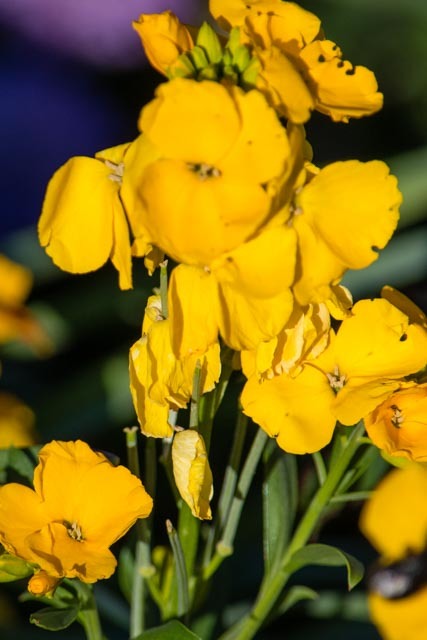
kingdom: Plantae
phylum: Tracheophyta
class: Magnoliopsida
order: Brassicales
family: Brassicaceae
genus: Erysimum
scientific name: Erysimum cheiri
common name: Wallflower
